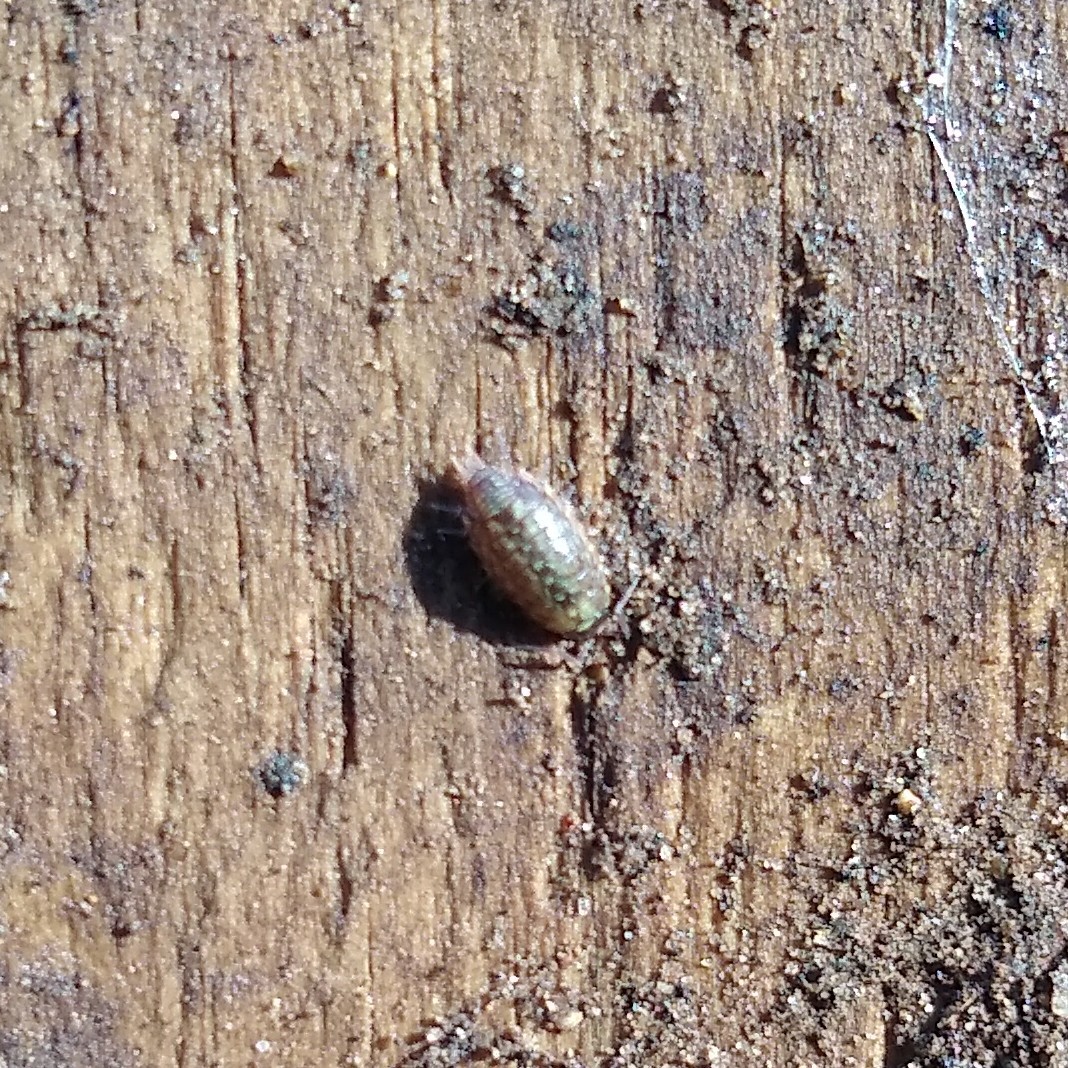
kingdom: Animalia
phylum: Arthropoda
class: Malacostraca
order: Isopoda
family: Philosciidae
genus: Philoscia
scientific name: Philoscia muscorum
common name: Common striped woodlouse
